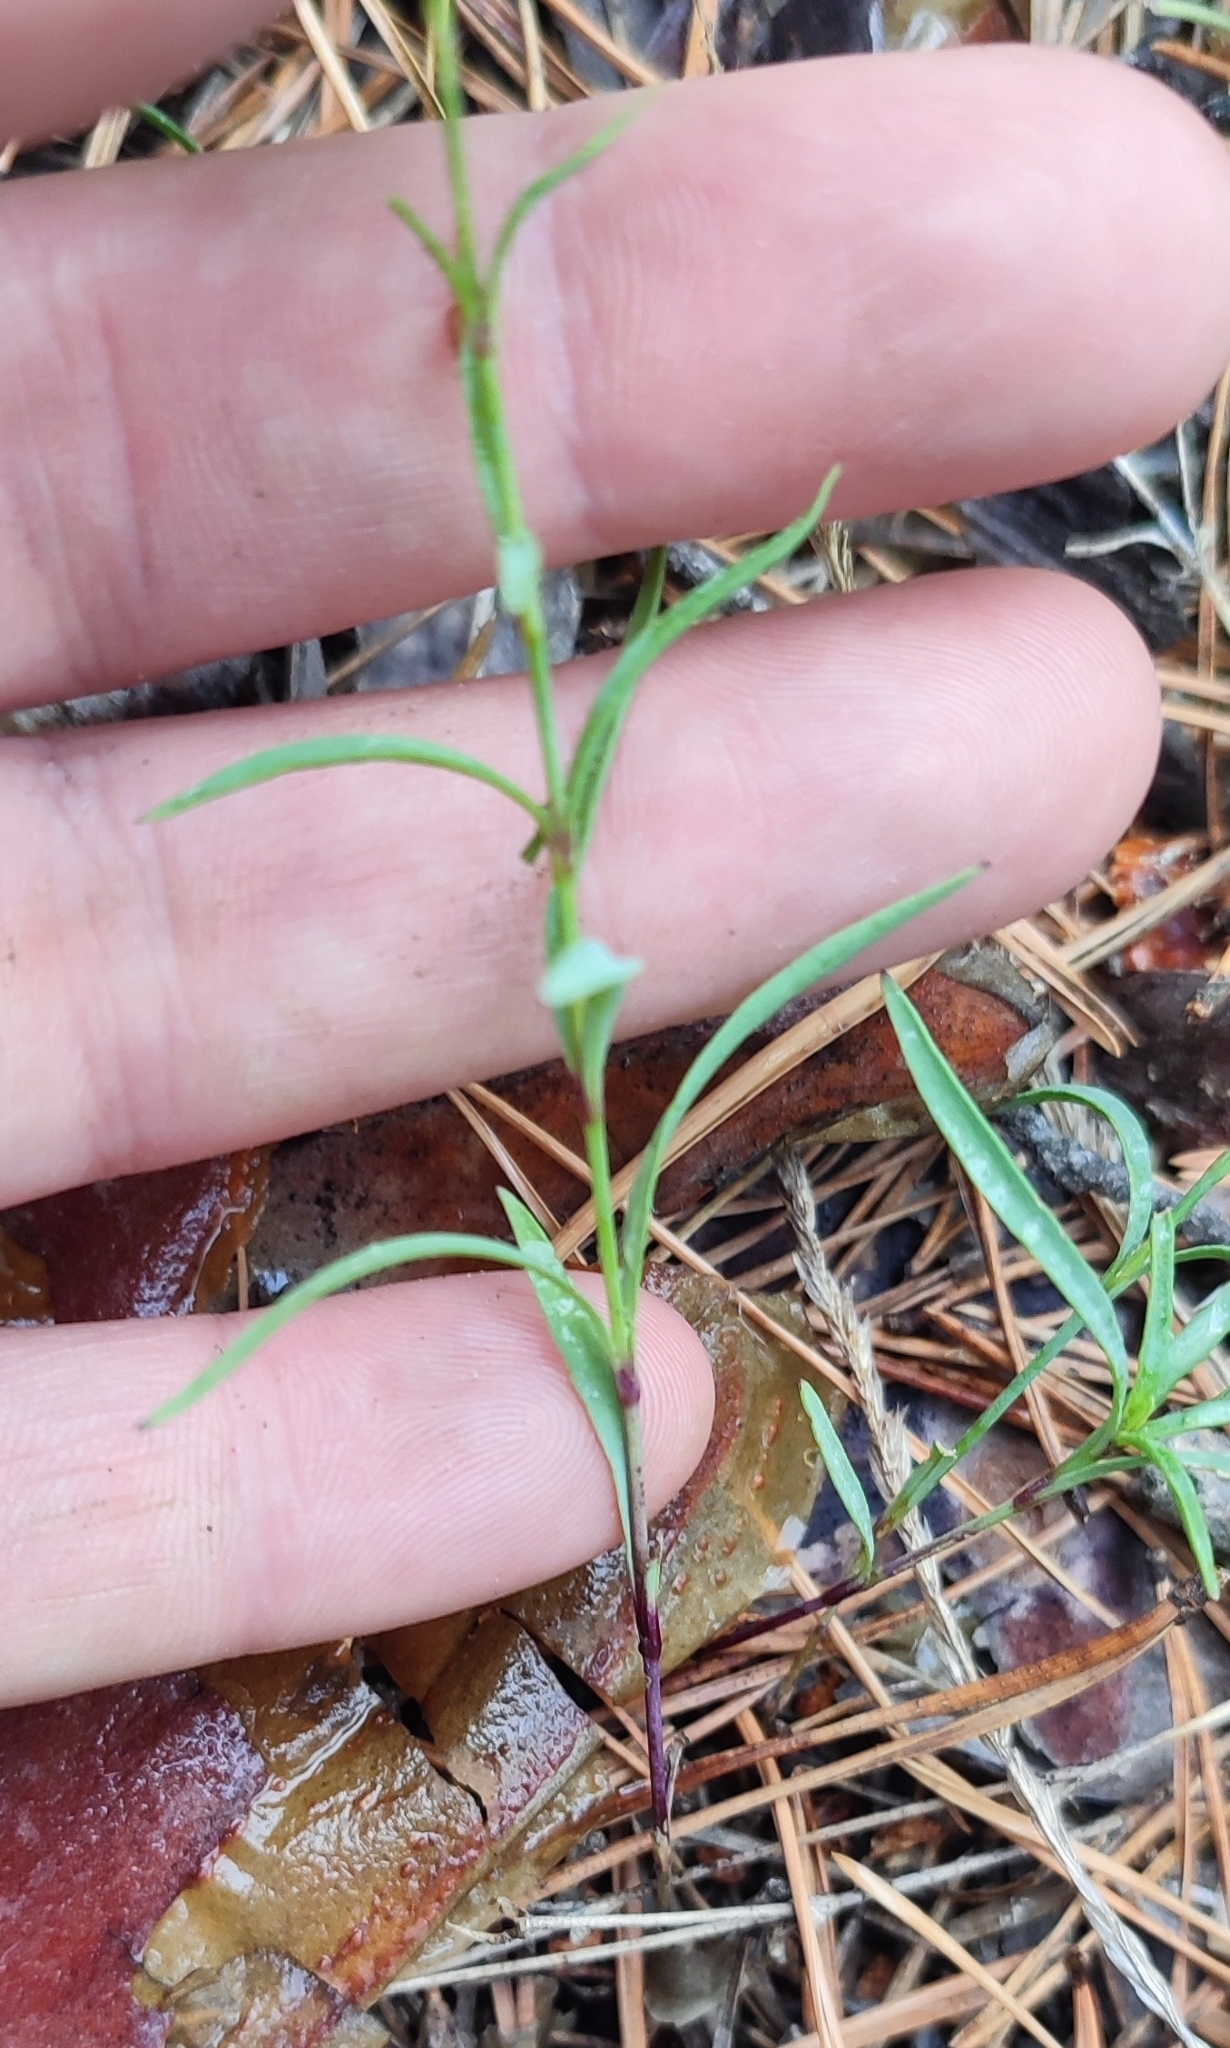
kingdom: Plantae
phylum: Tracheophyta
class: Magnoliopsida
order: Caryophyllales
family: Caryophyllaceae
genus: Dianthus
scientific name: Dianthus chinensis
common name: Rainbow pink
